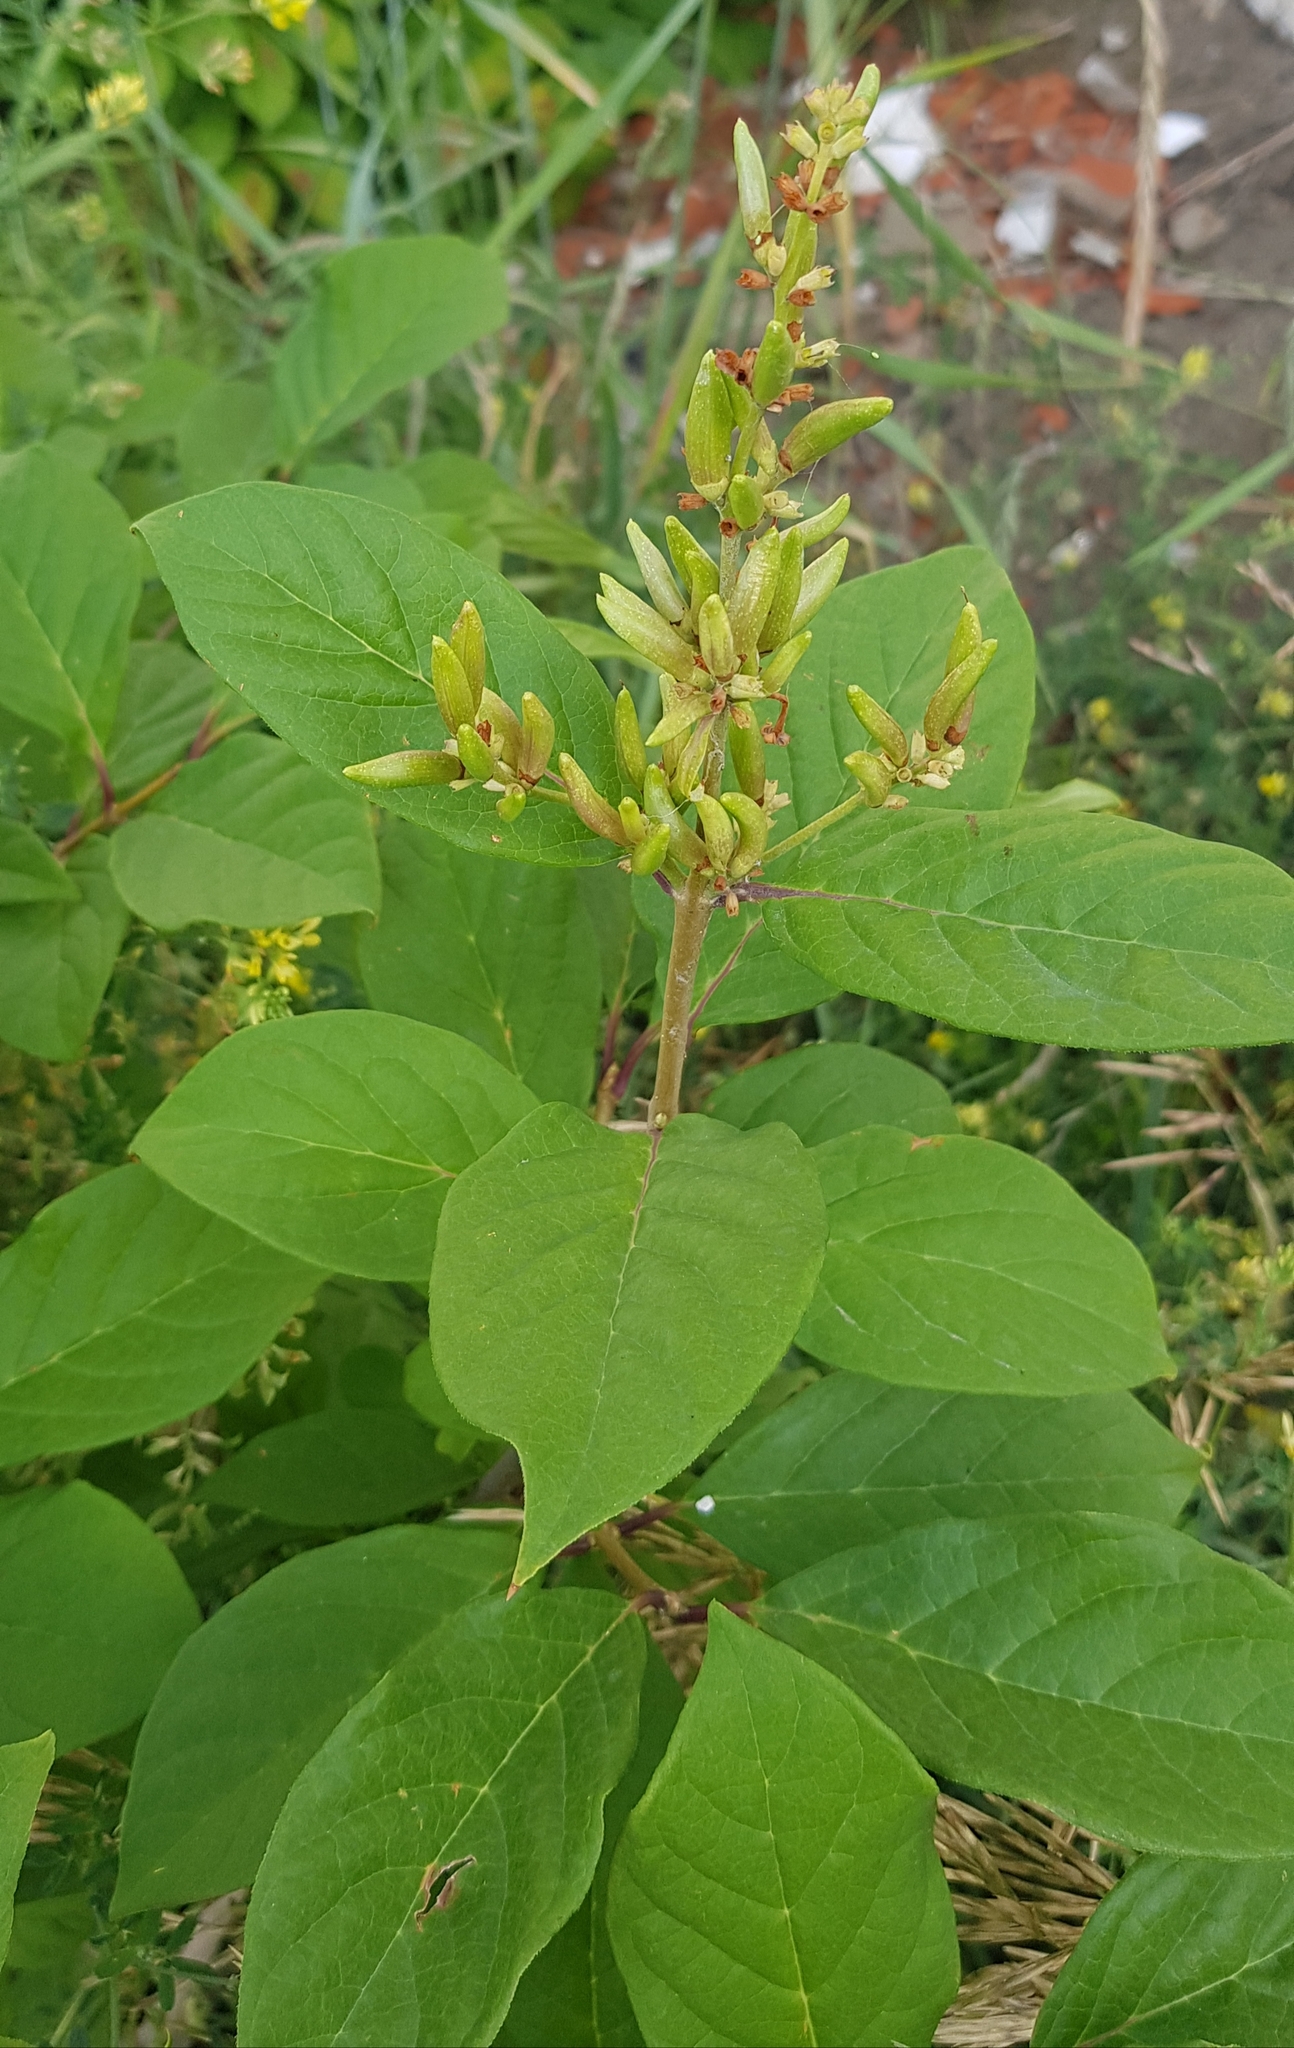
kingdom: Plantae
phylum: Tracheophyta
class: Magnoliopsida
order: Rosales
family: Rosaceae
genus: Prunus
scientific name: Prunus padus
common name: Bird cherry
